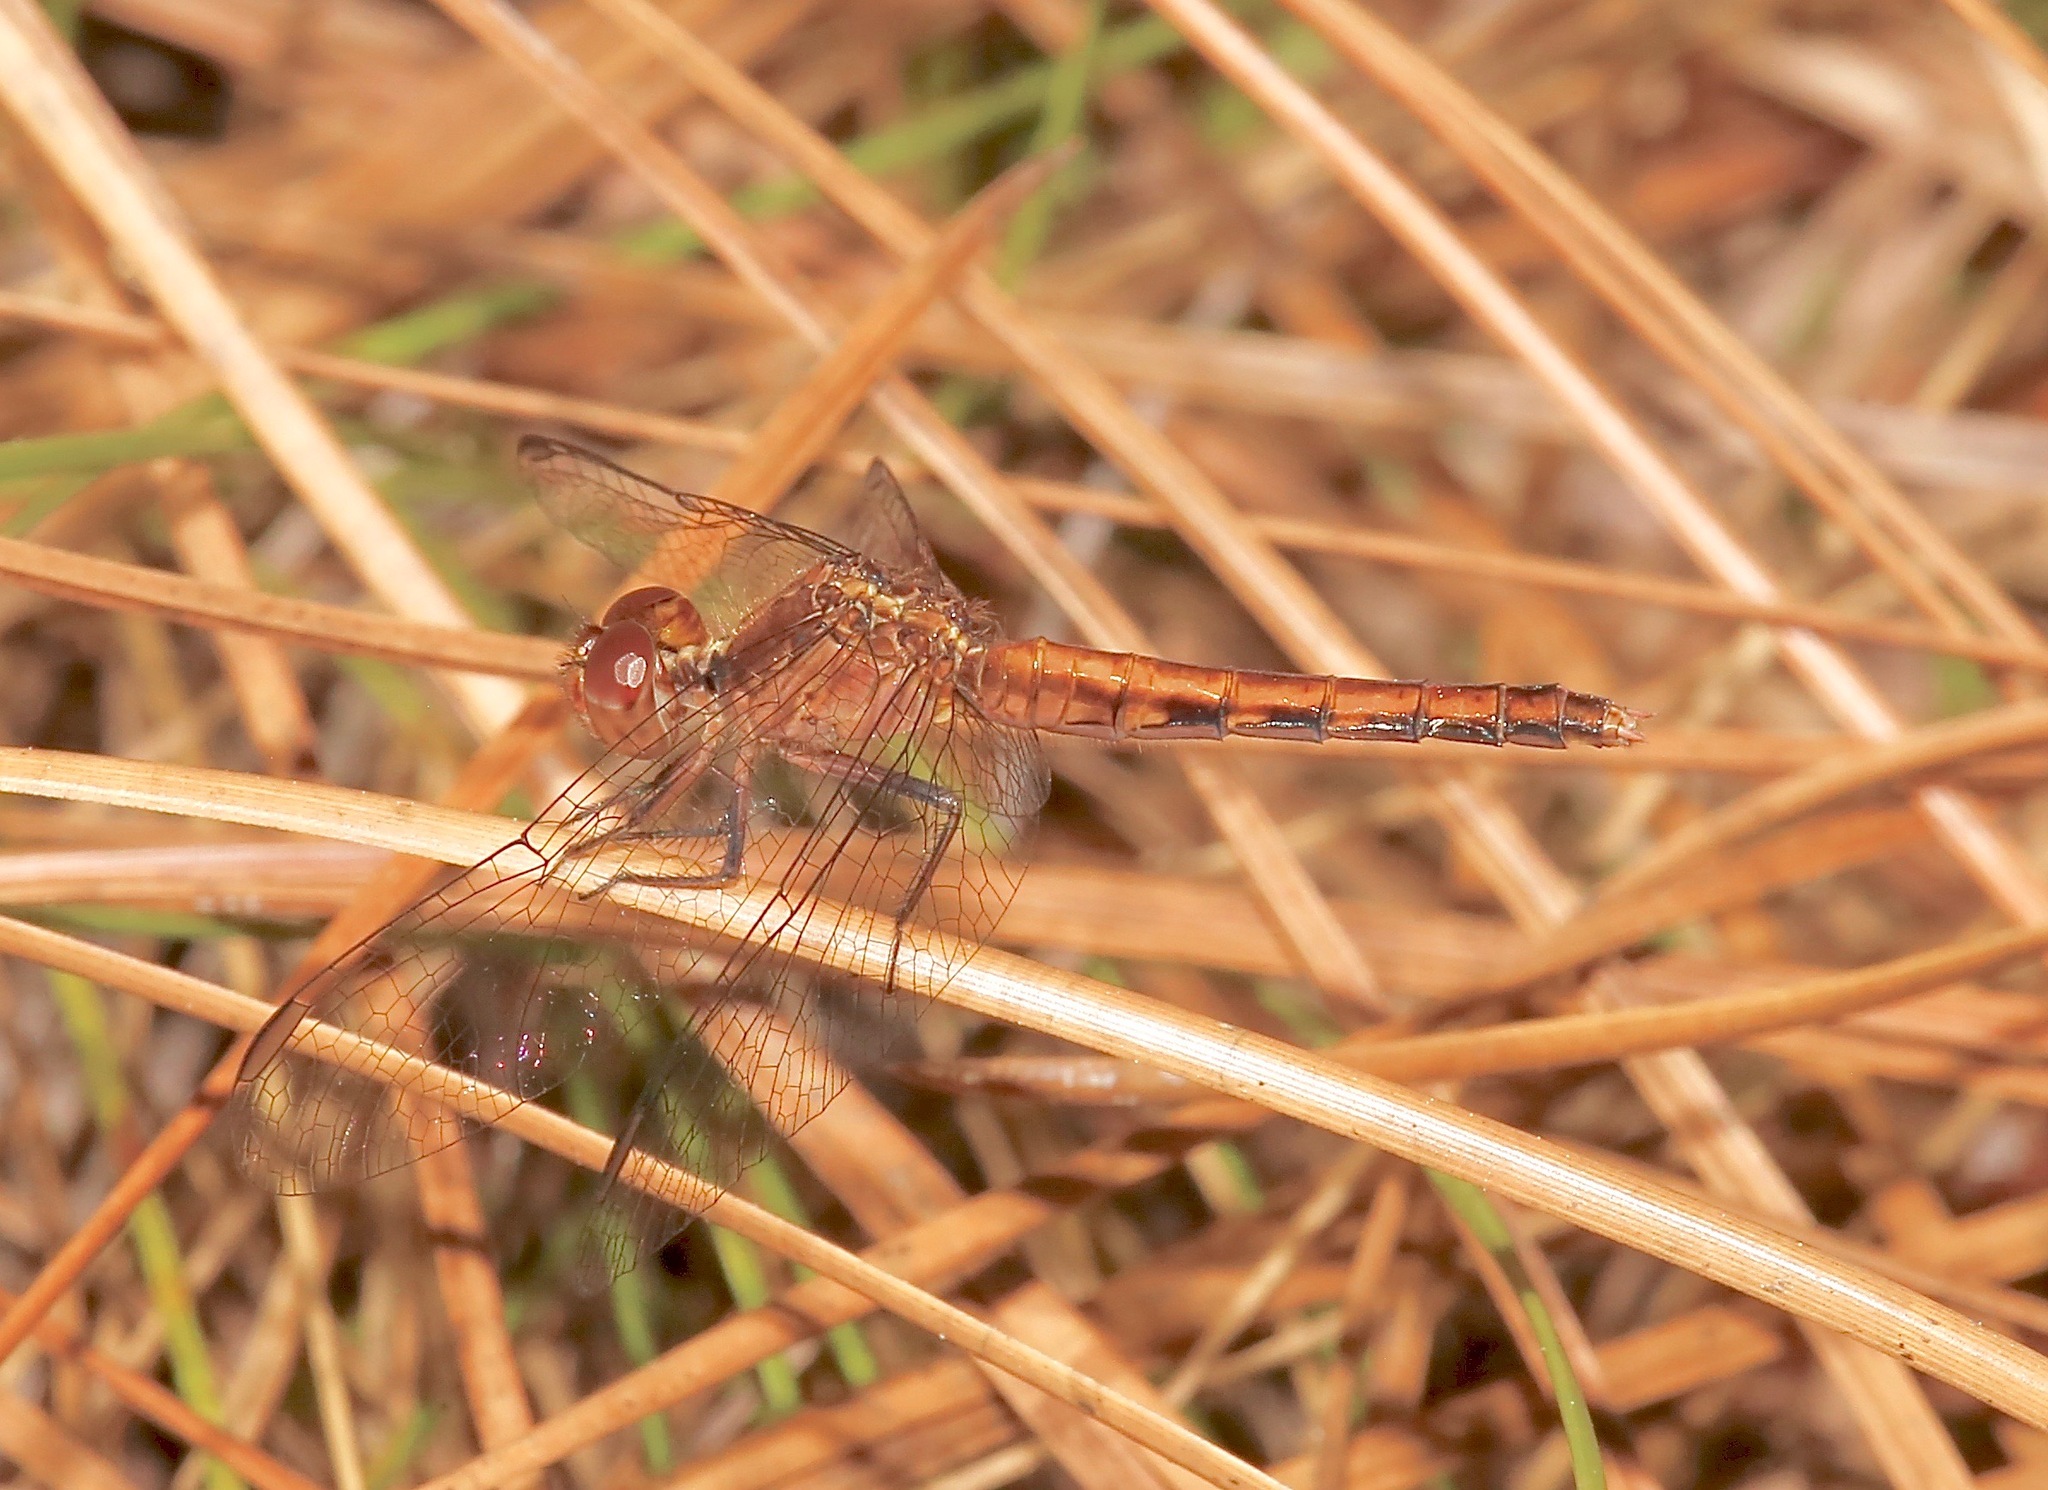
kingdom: Animalia
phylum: Arthropoda
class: Insecta
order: Odonata
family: Libellulidae
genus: Erythrodiplax
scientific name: Erythrodiplax minuscula
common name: Little blue dragonlet
